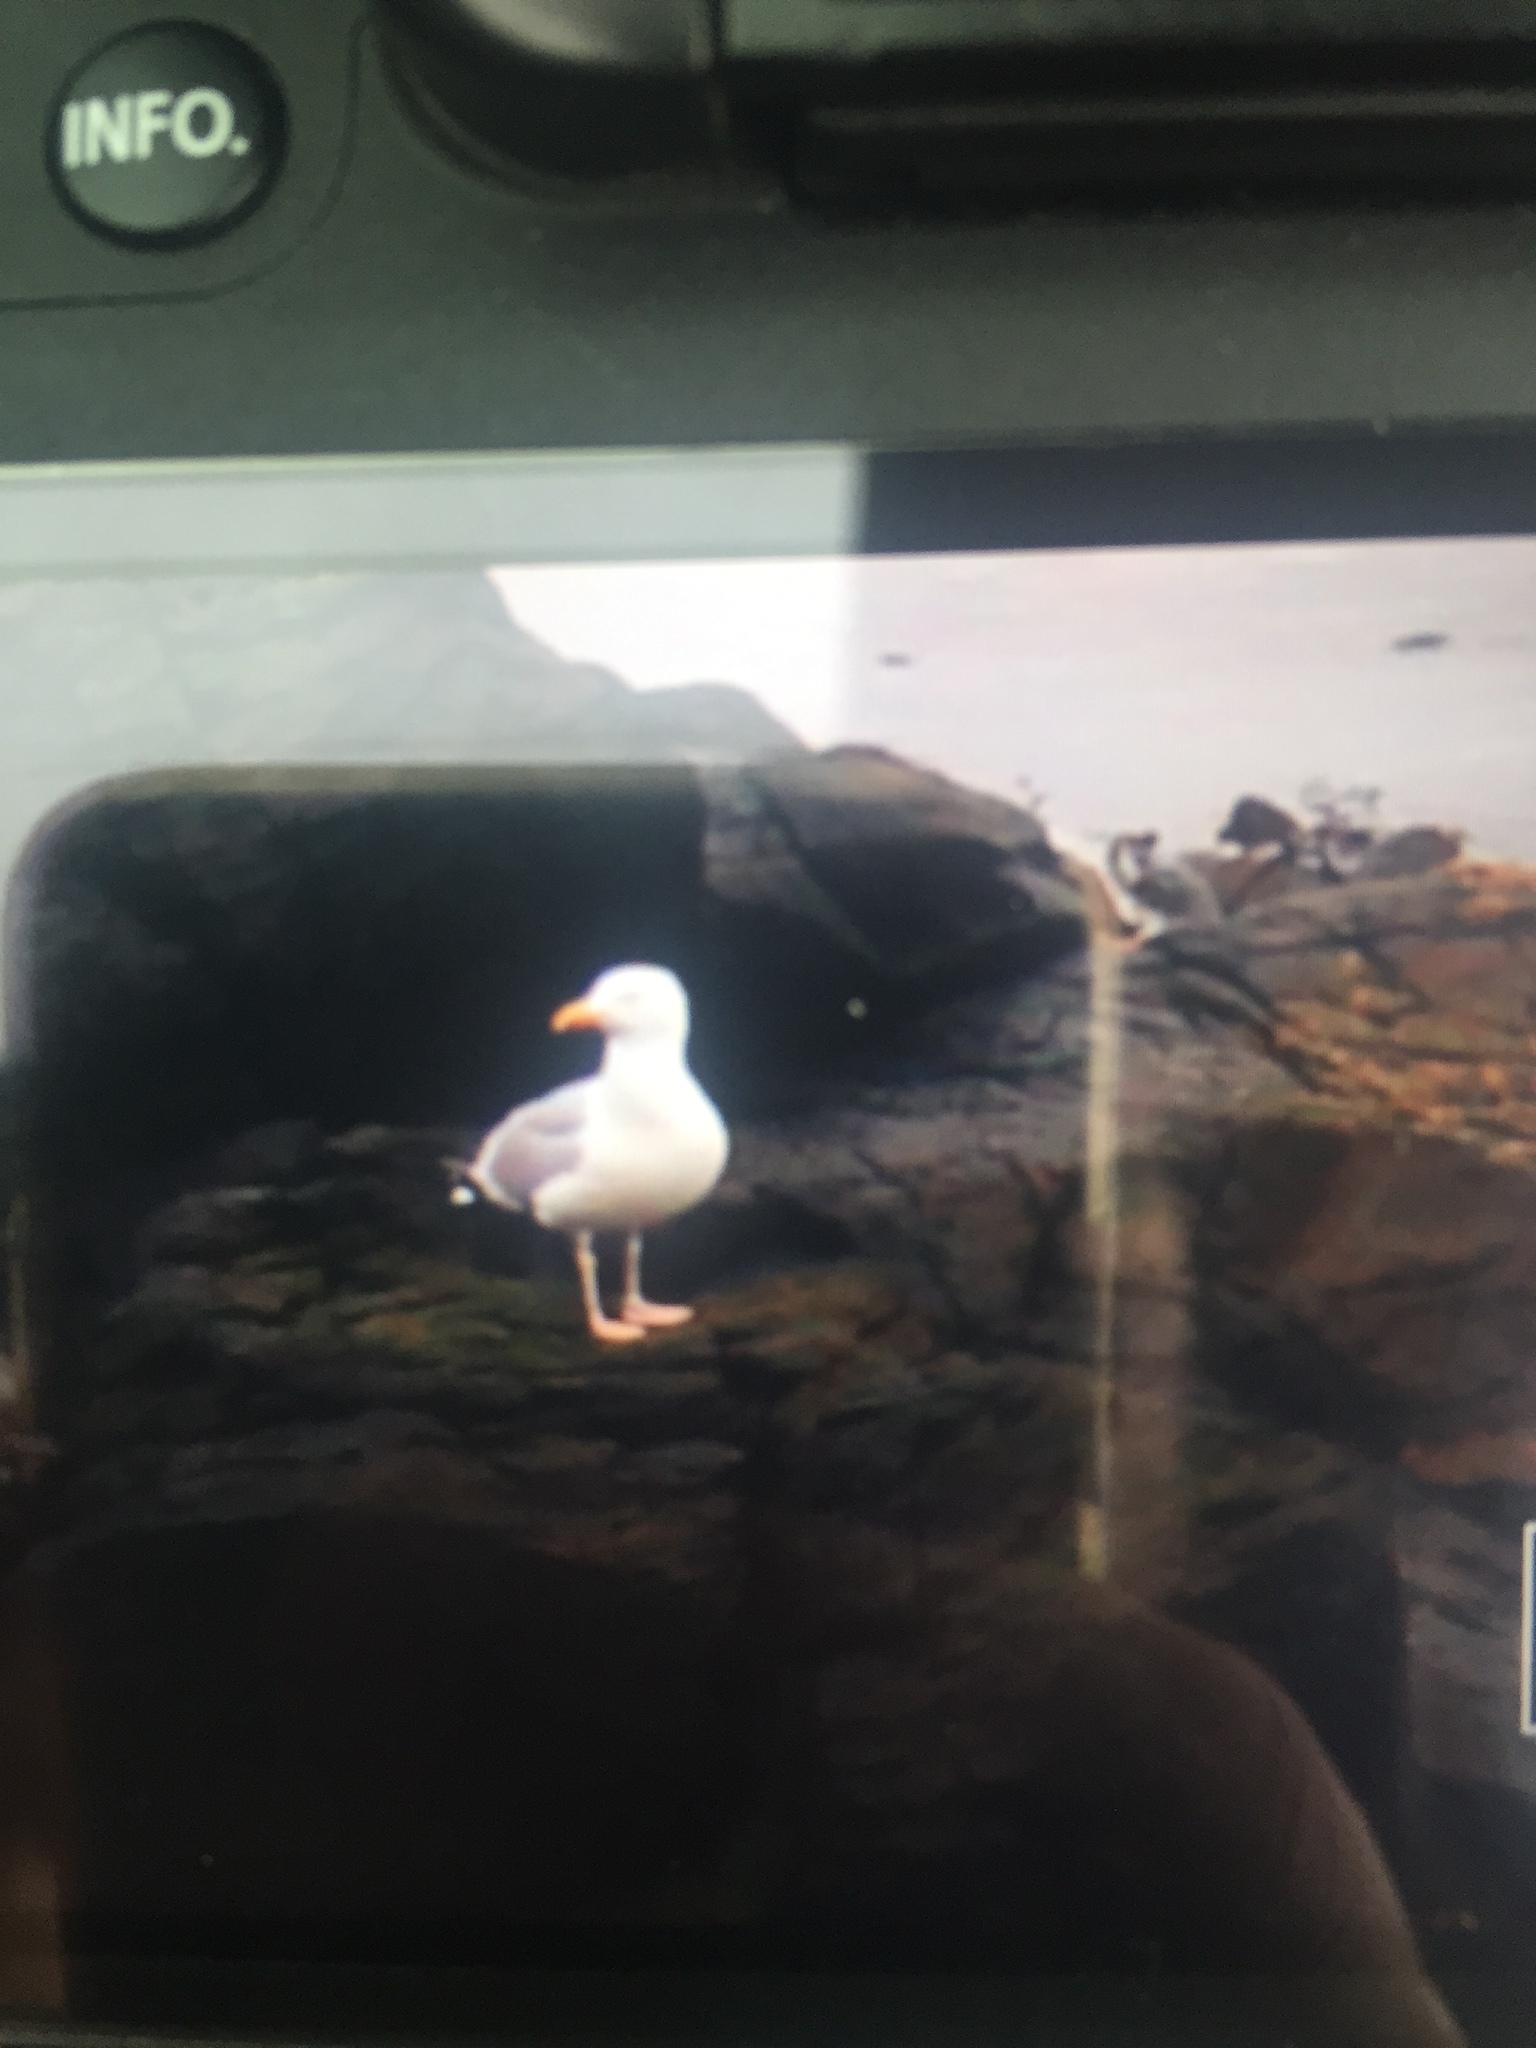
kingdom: Animalia
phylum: Chordata
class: Aves
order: Charadriiformes
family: Laridae
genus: Larus
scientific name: Larus argentatus
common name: Herring gull
